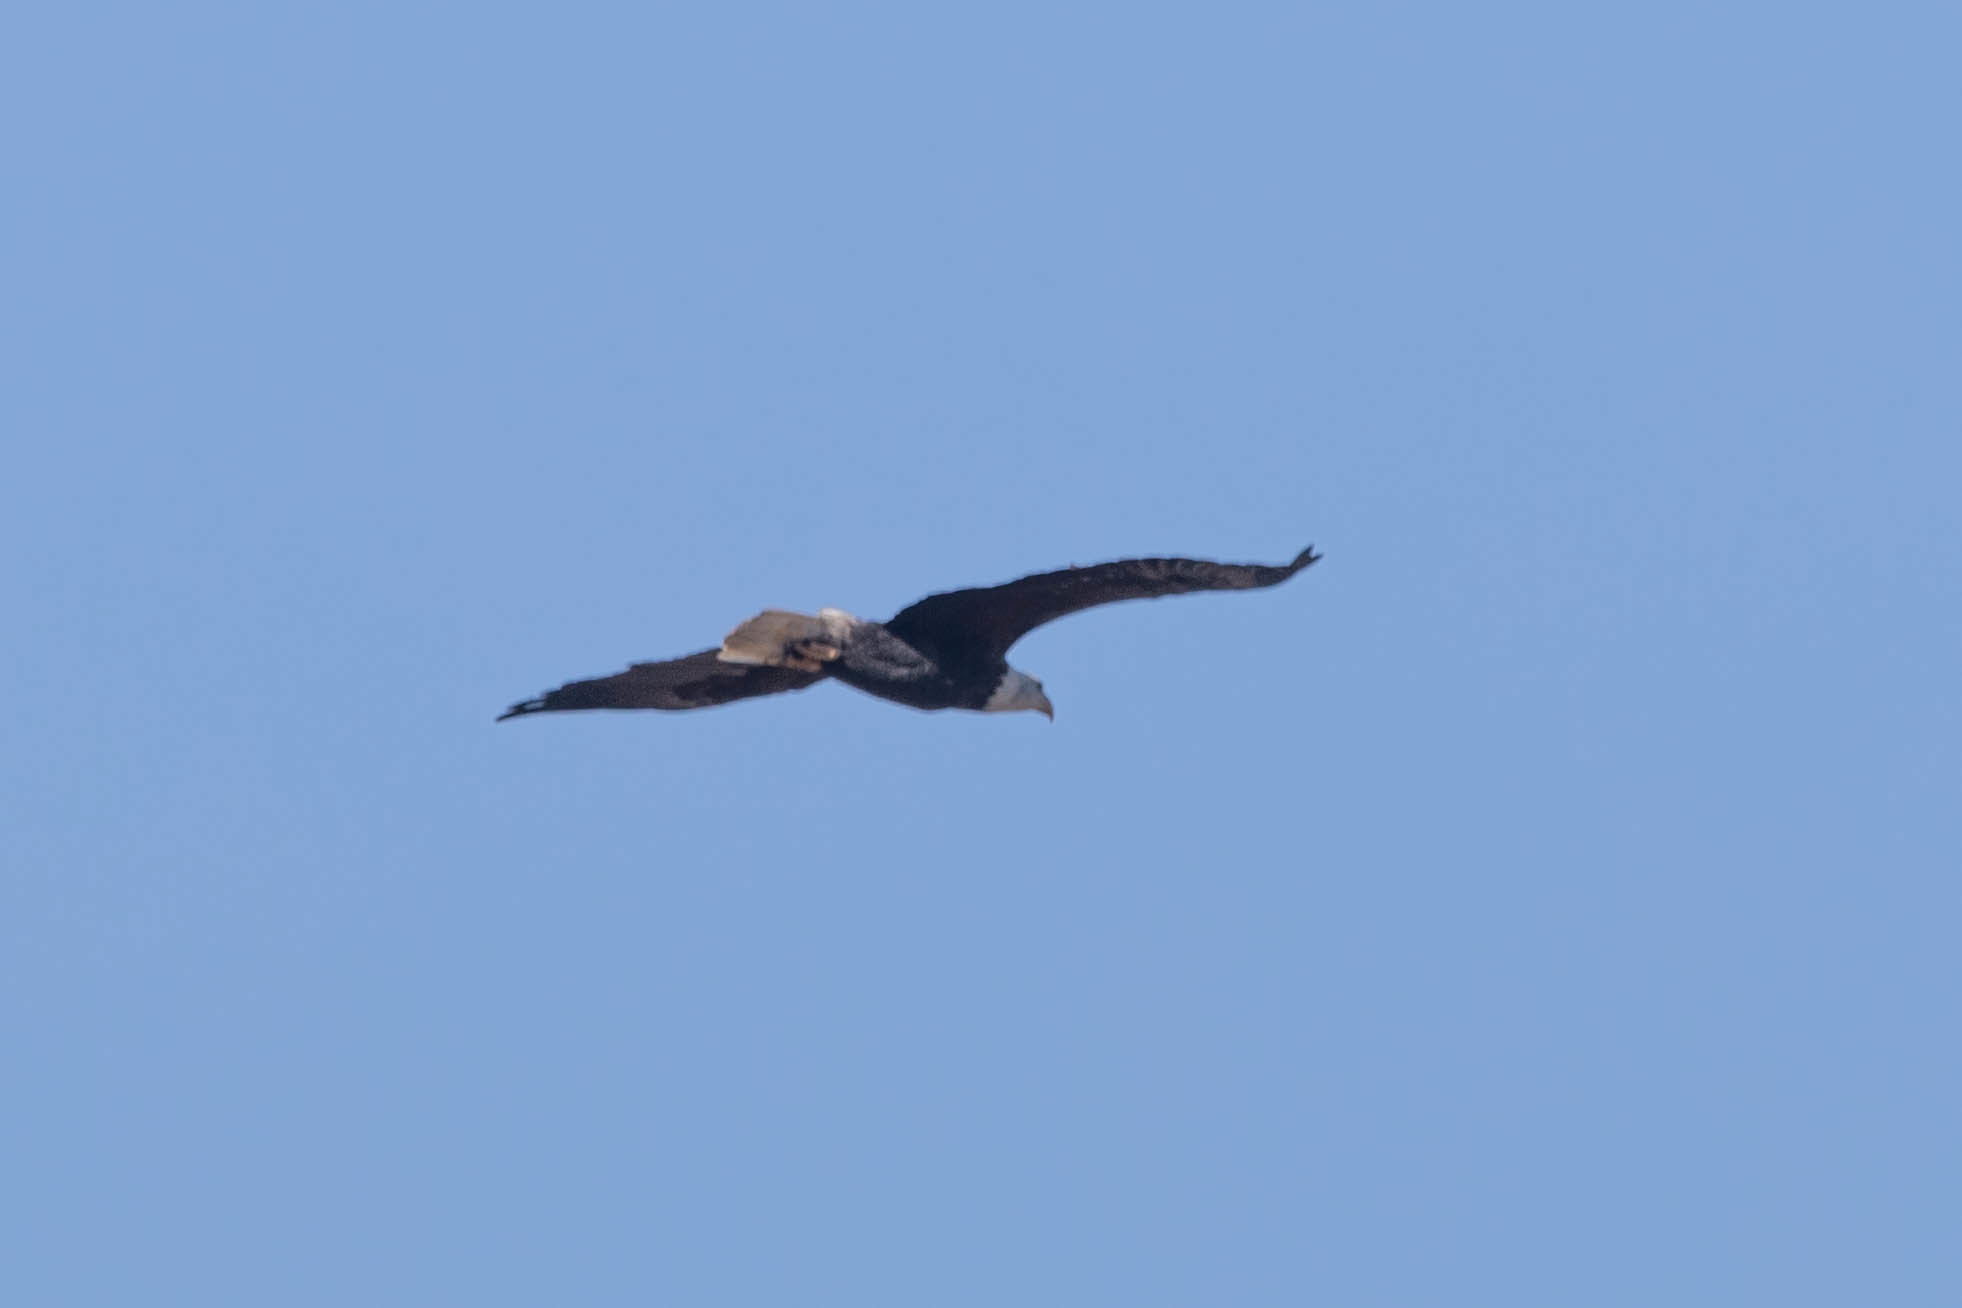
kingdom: Animalia
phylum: Chordata
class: Aves
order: Accipitriformes
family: Accipitridae
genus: Haliaeetus
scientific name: Haliaeetus leucocephalus
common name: Bald eagle
